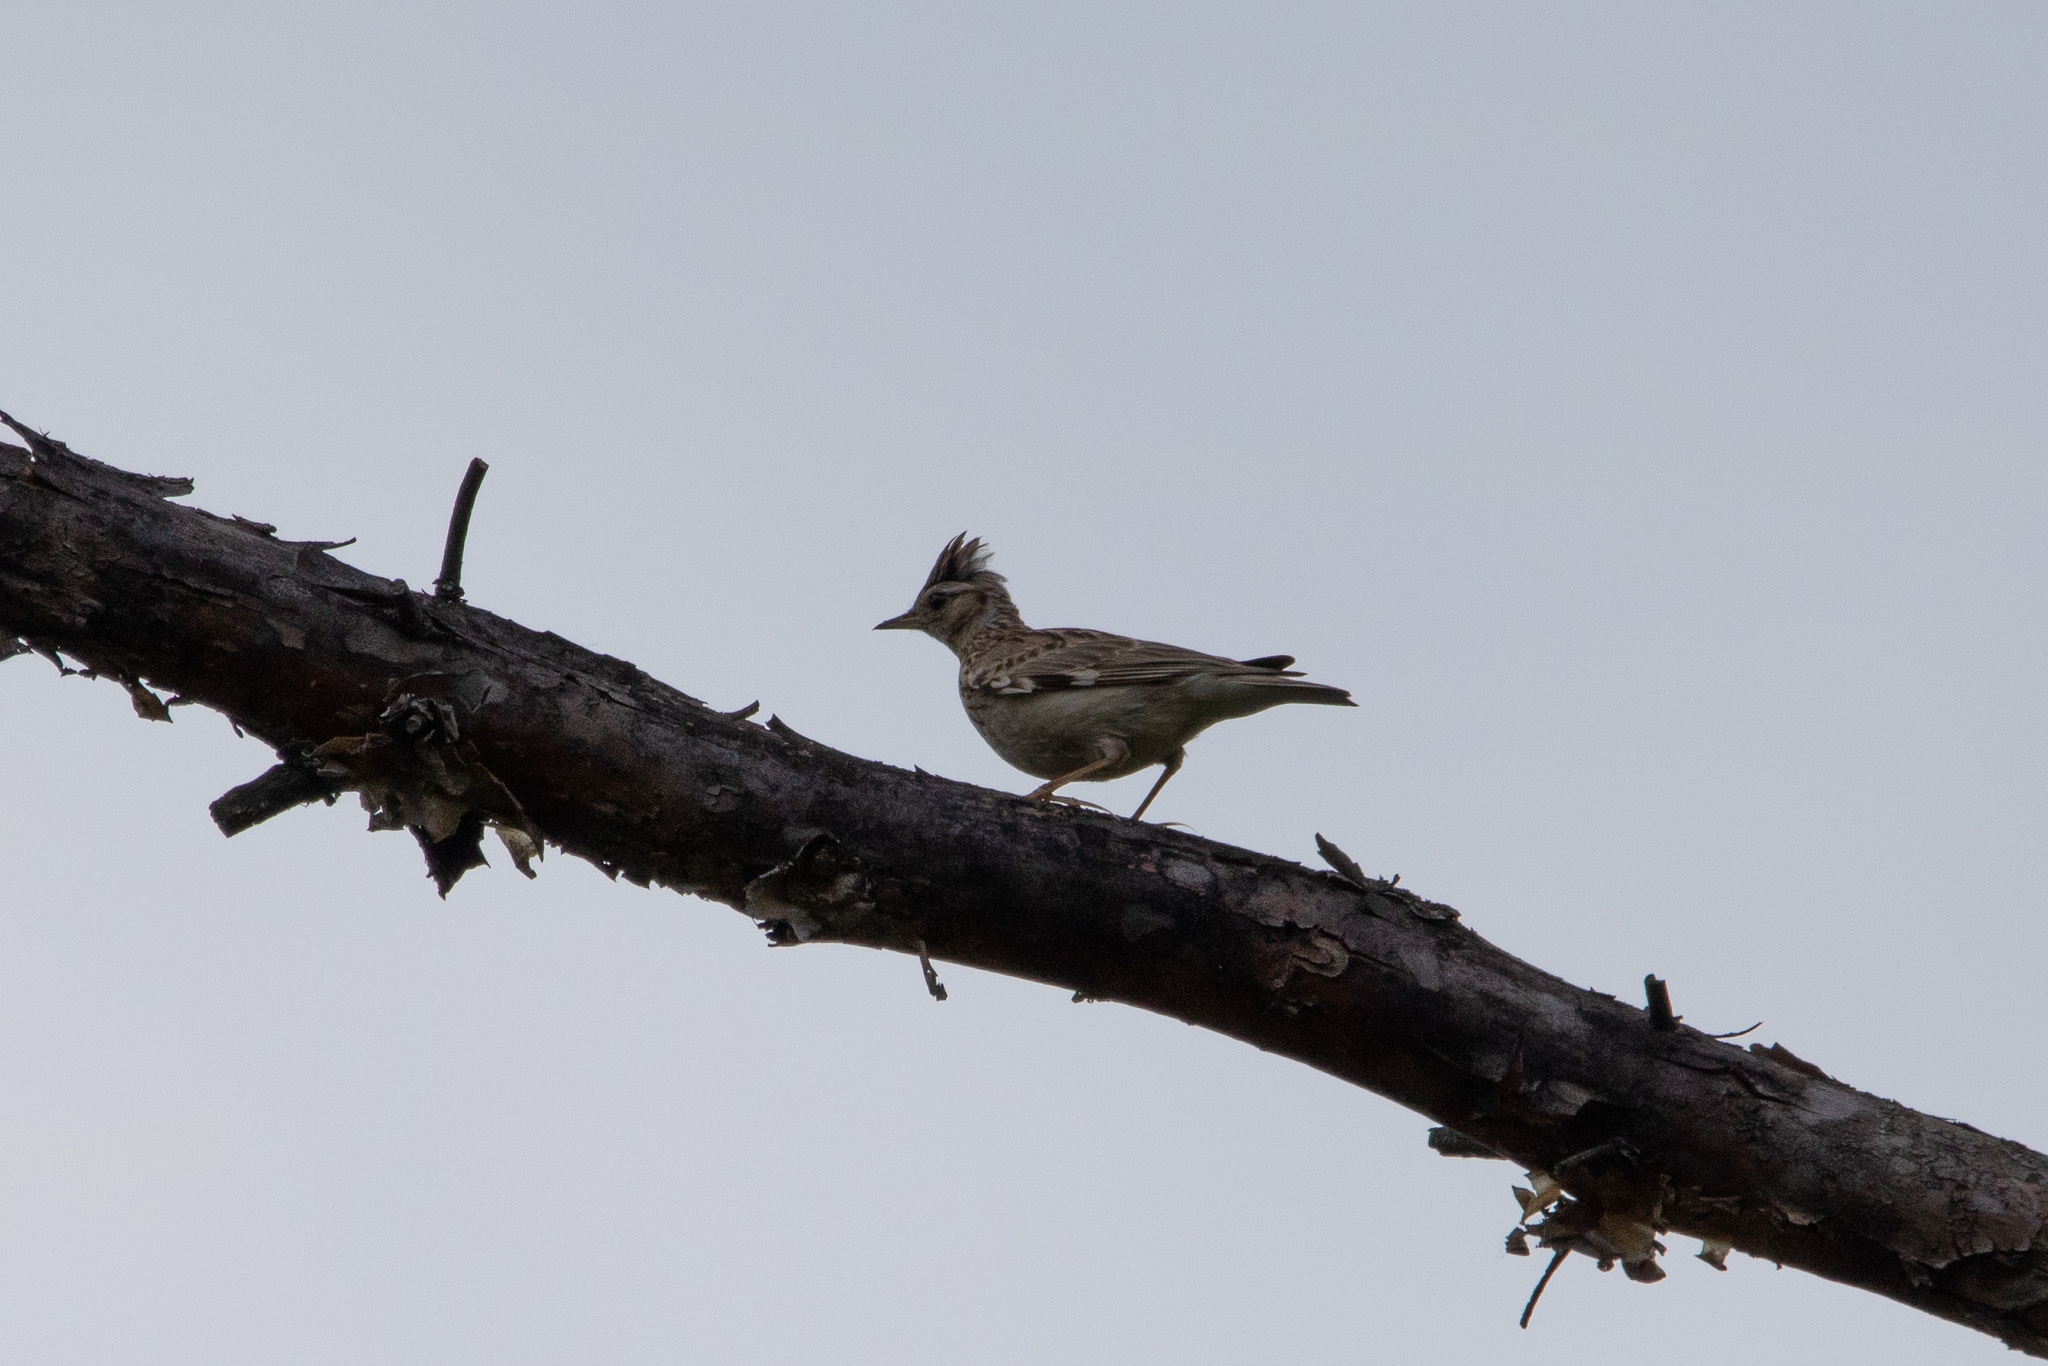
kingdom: Animalia
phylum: Chordata
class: Aves
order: Passeriformes
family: Alaudidae
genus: Lullula
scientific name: Lullula arborea
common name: Woodlark
